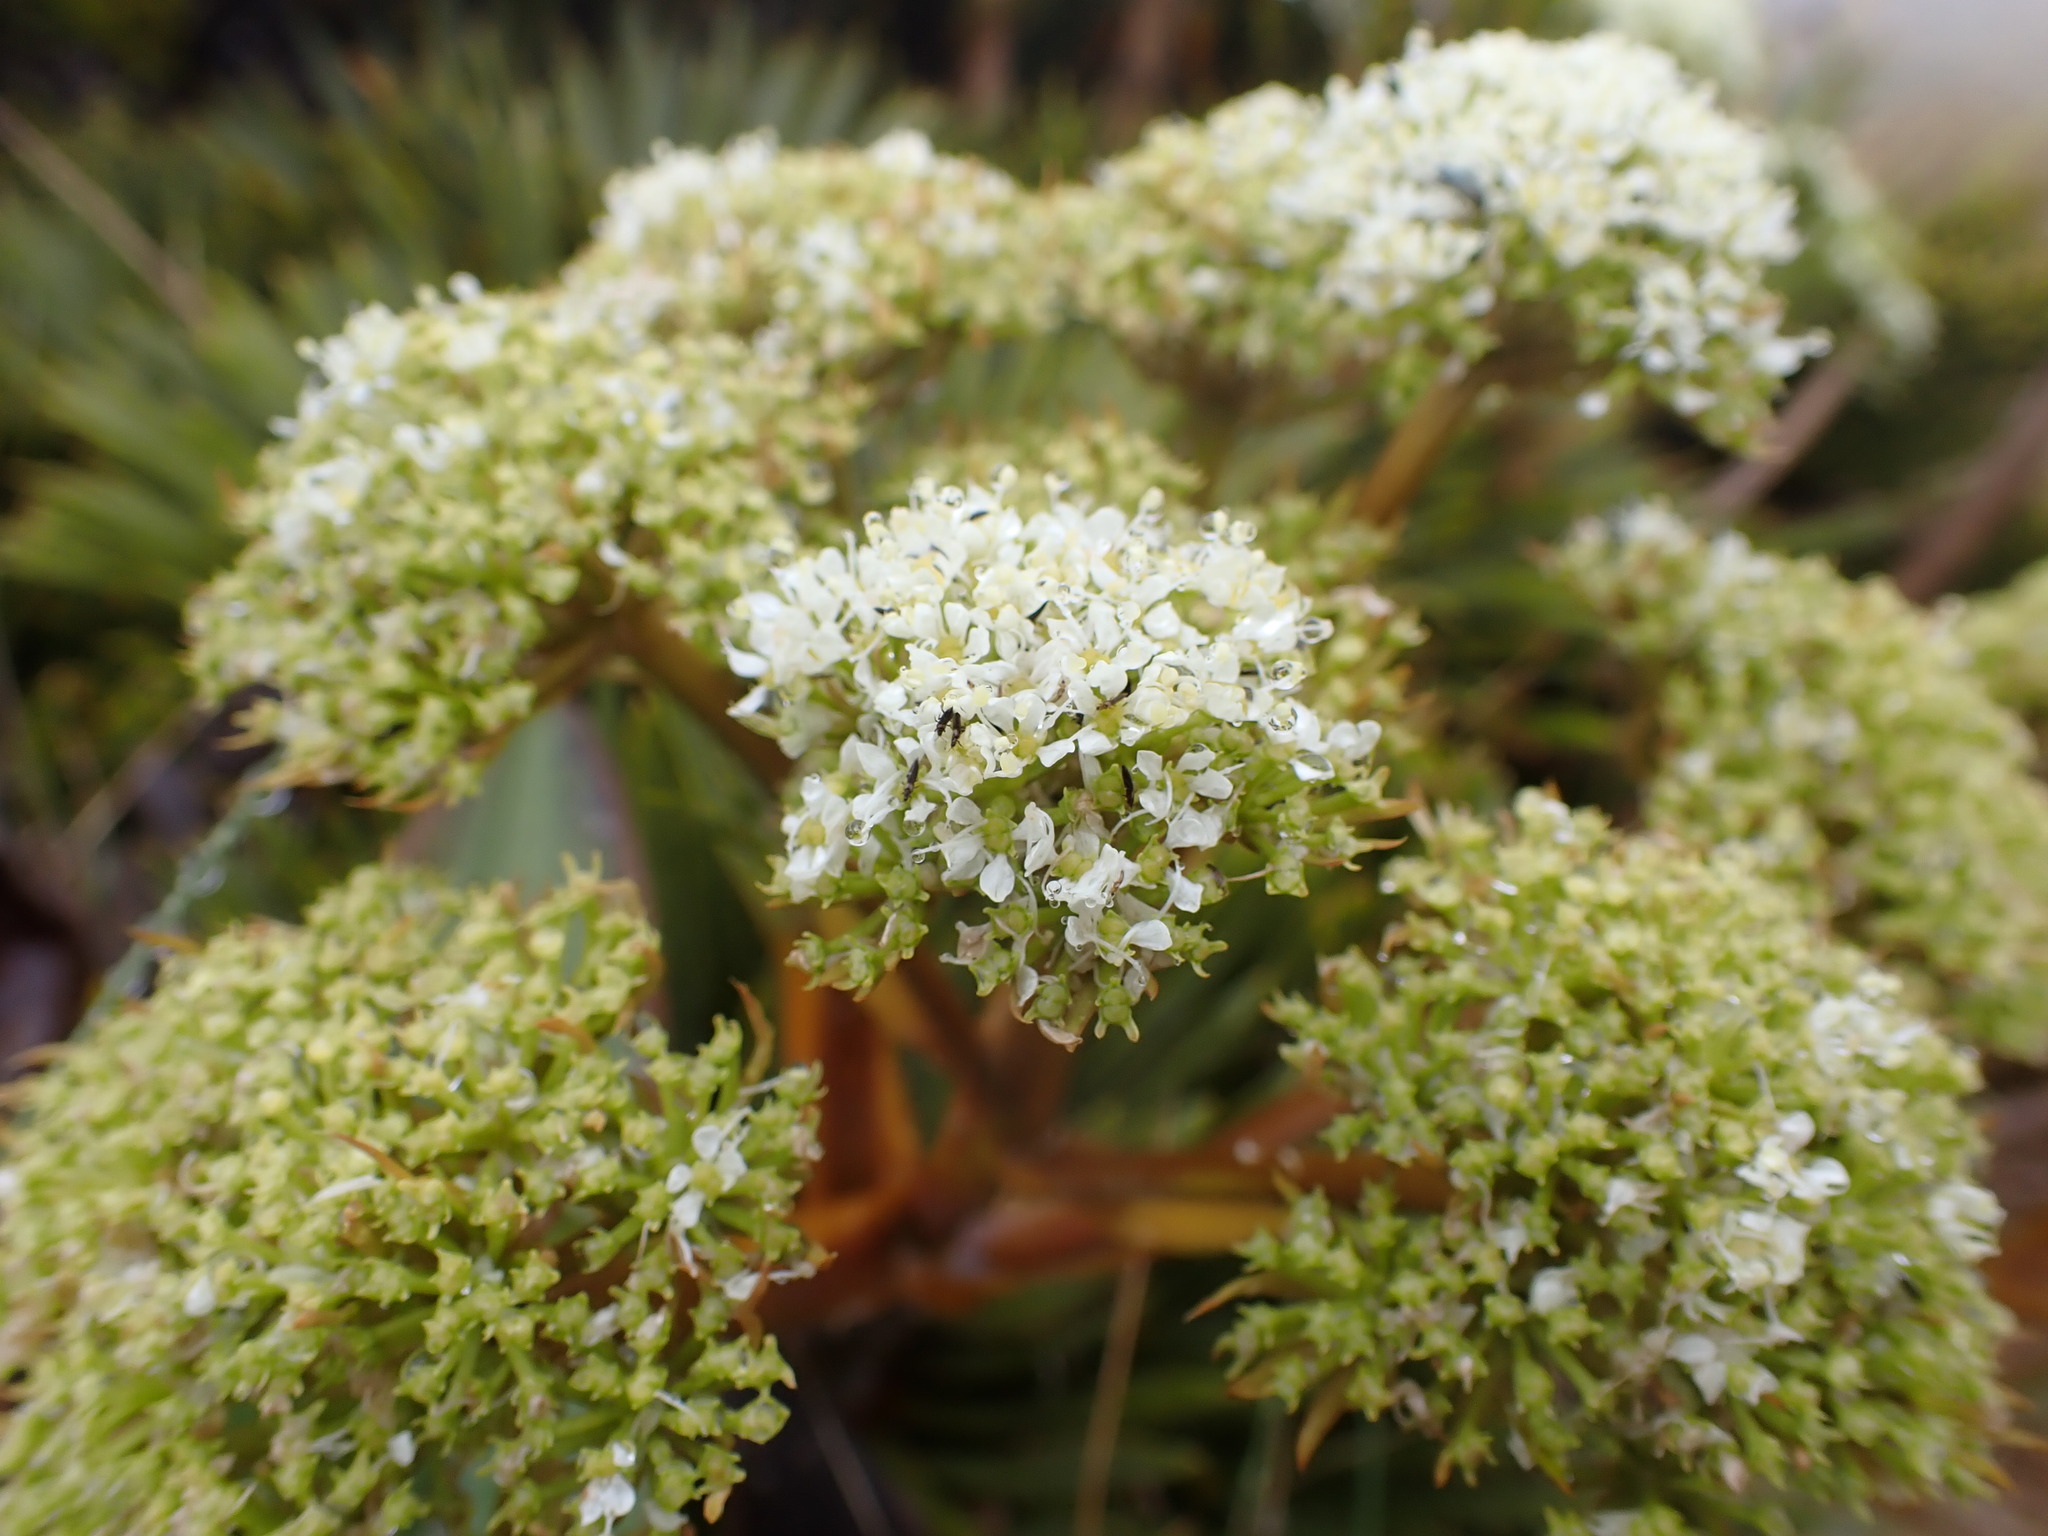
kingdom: Plantae
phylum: Tracheophyta
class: Magnoliopsida
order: Apiales
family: Apiaceae
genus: Aciphylla
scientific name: Aciphylla crosby-smithii
